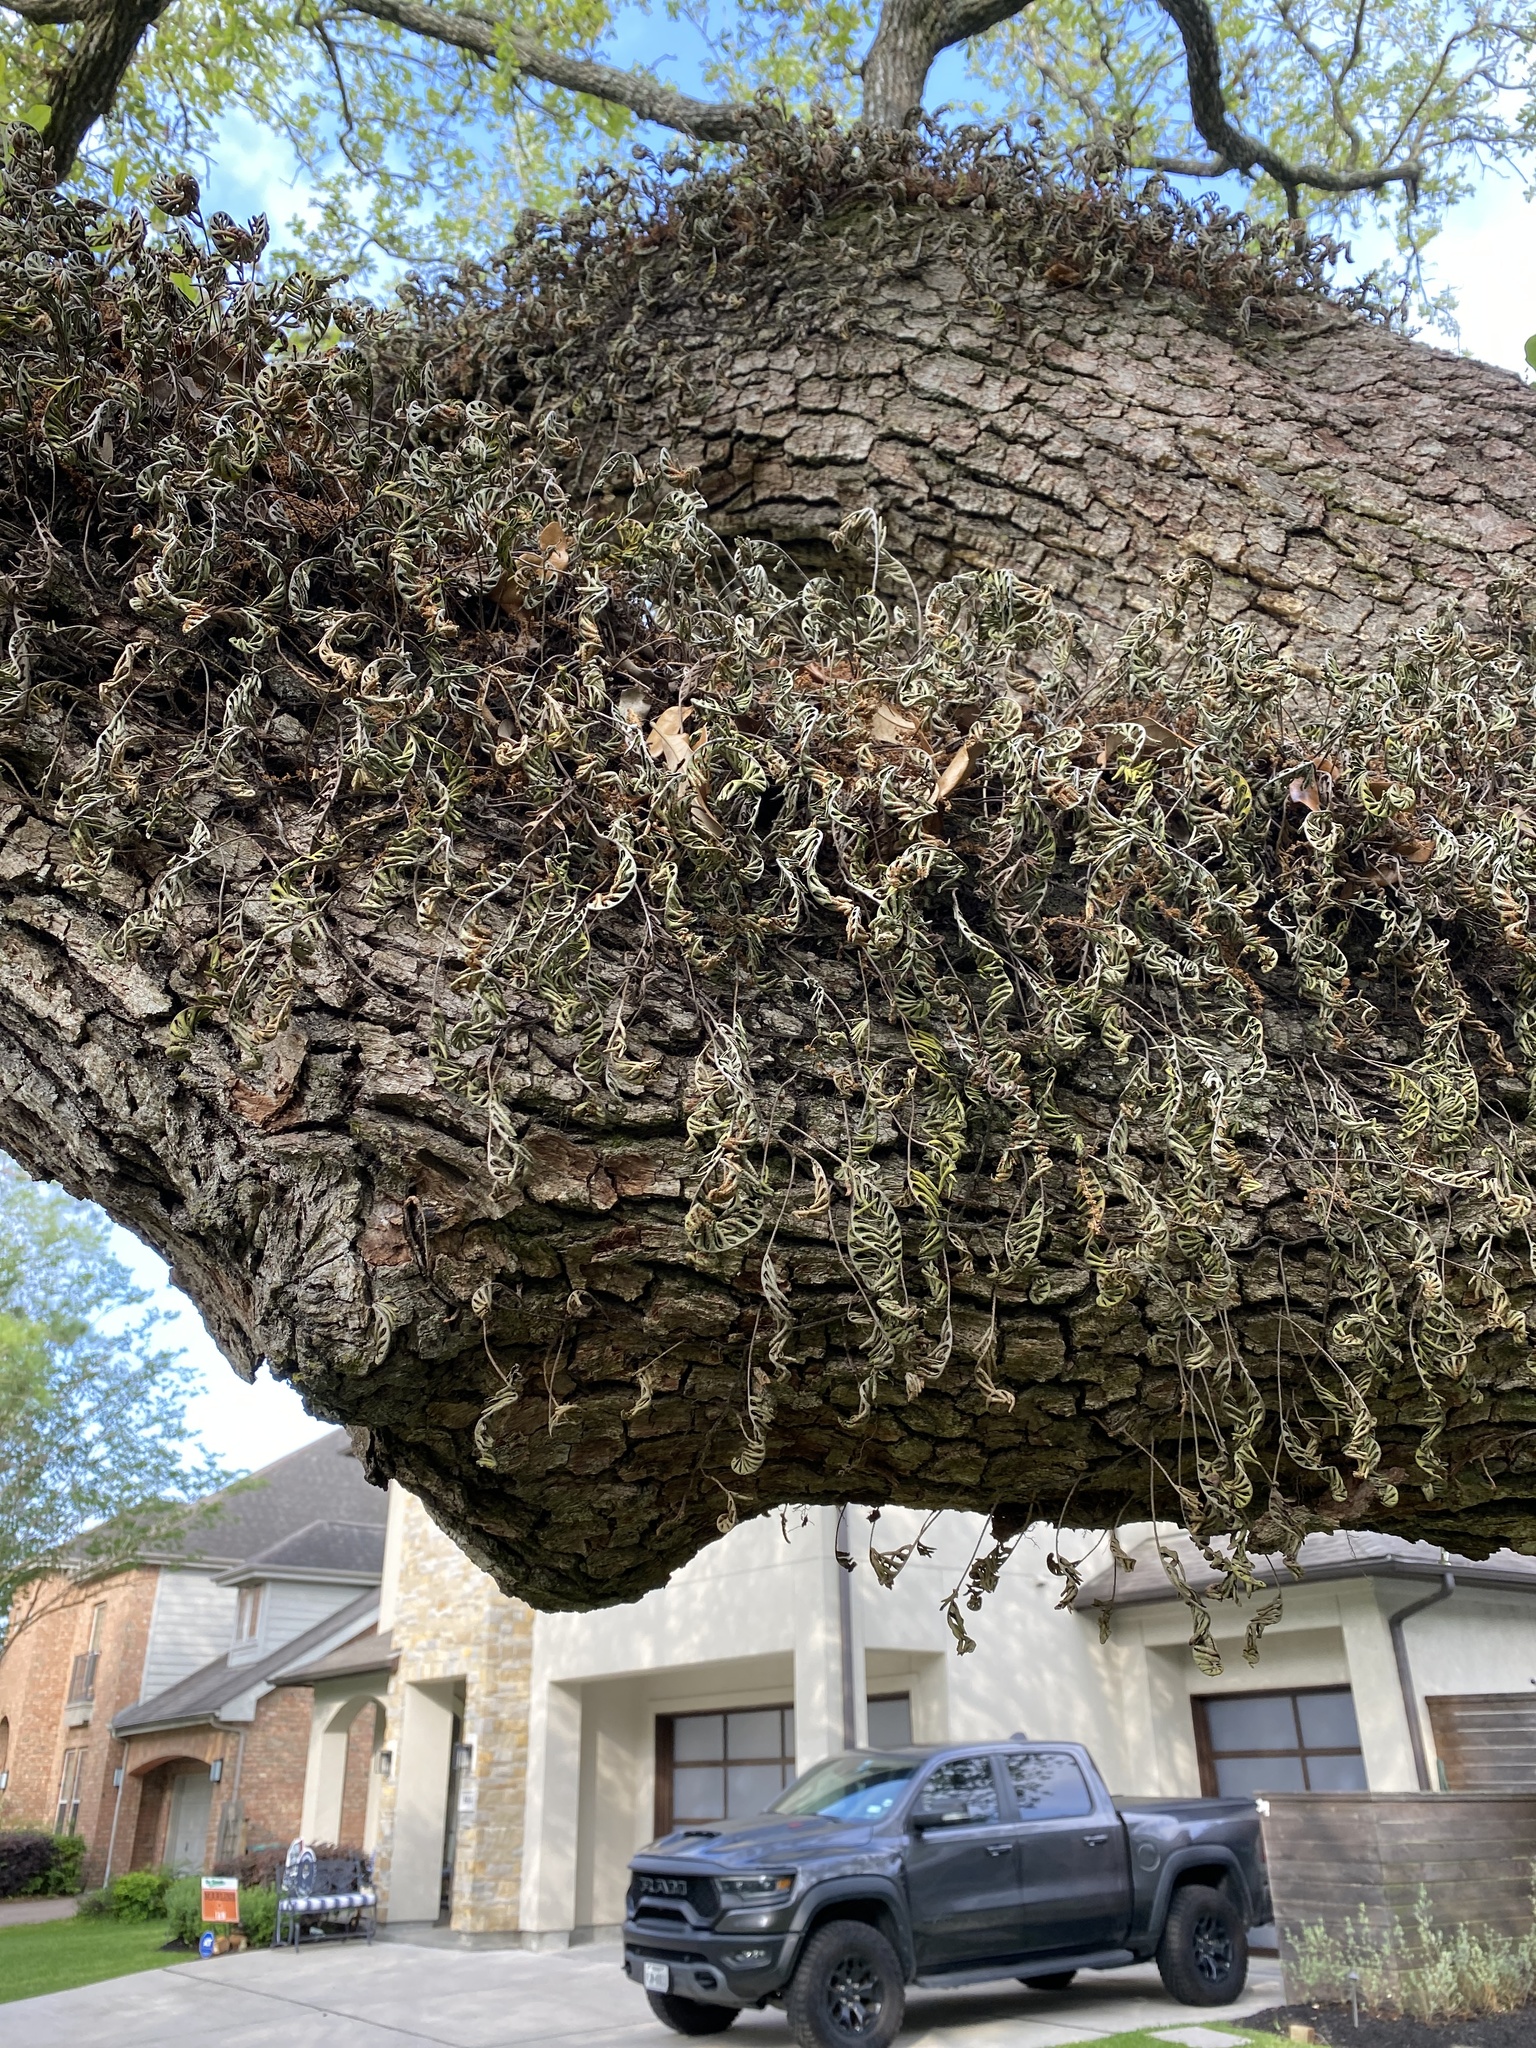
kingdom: Plantae
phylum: Tracheophyta
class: Polypodiopsida
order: Polypodiales
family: Polypodiaceae
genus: Pleopeltis
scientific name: Pleopeltis michauxiana
